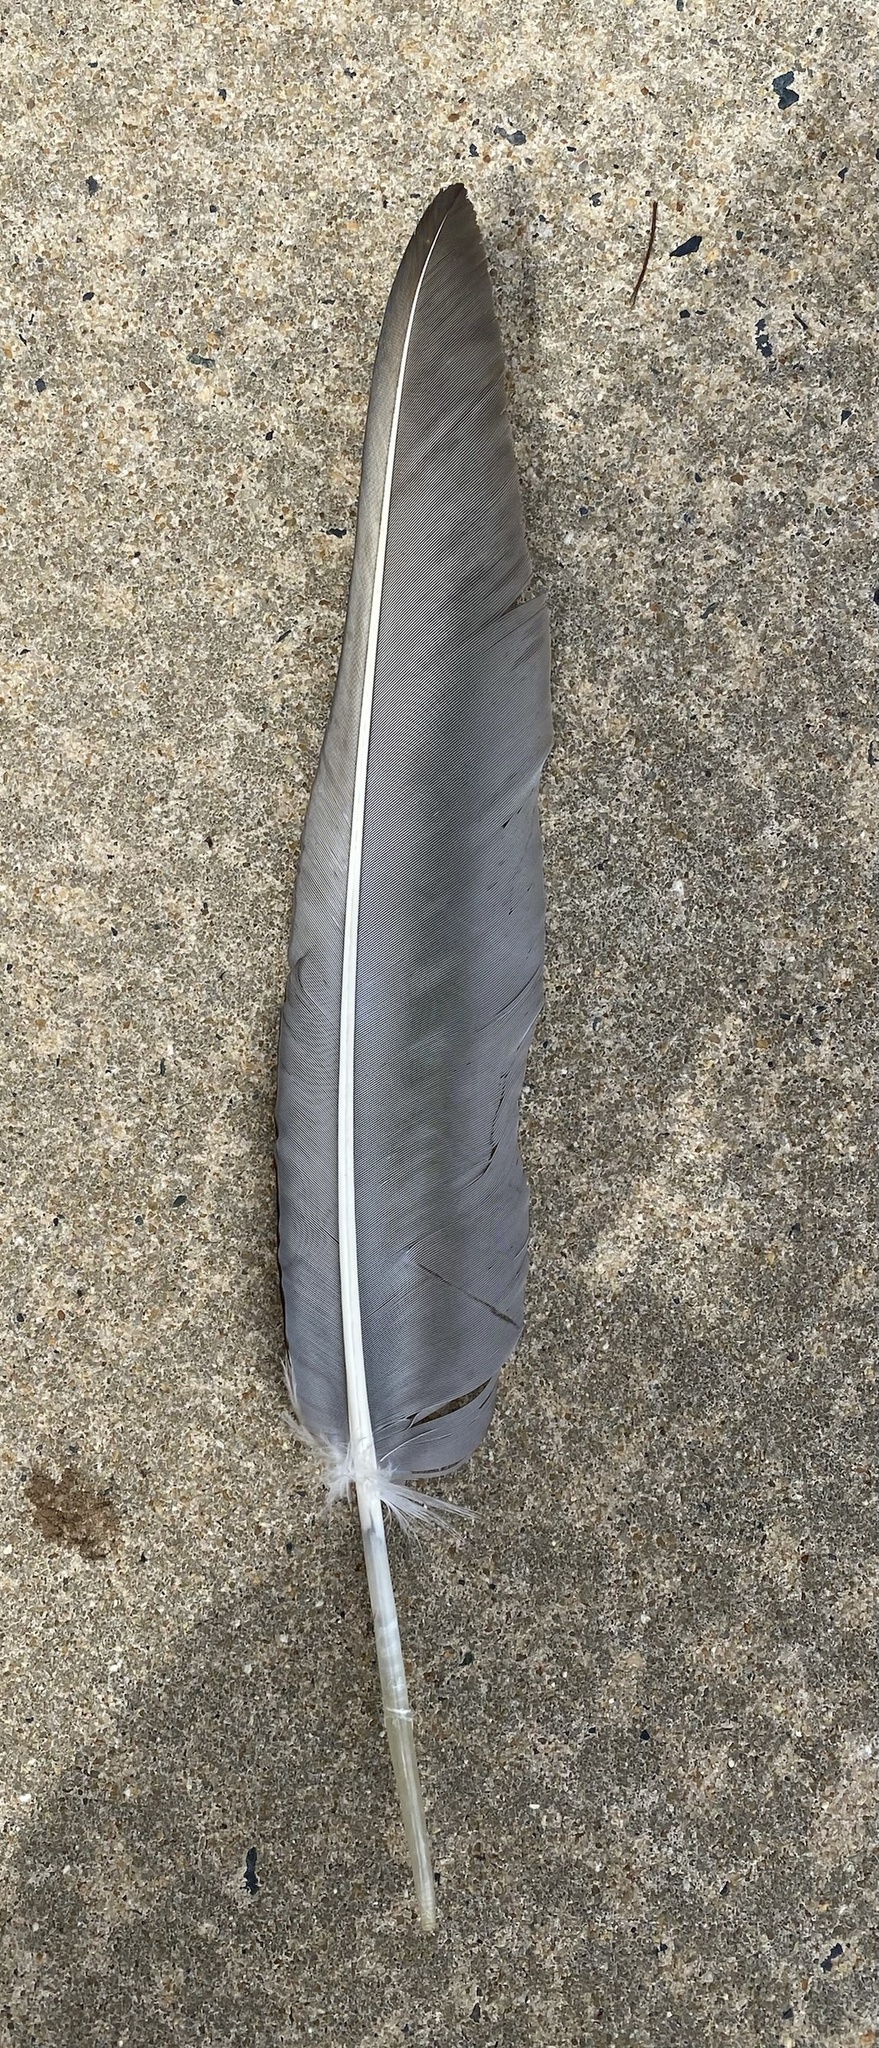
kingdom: Animalia
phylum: Chordata
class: Aves
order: Accipitriformes
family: Cathartidae
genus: Cathartes
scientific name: Cathartes aura
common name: Turkey vulture
